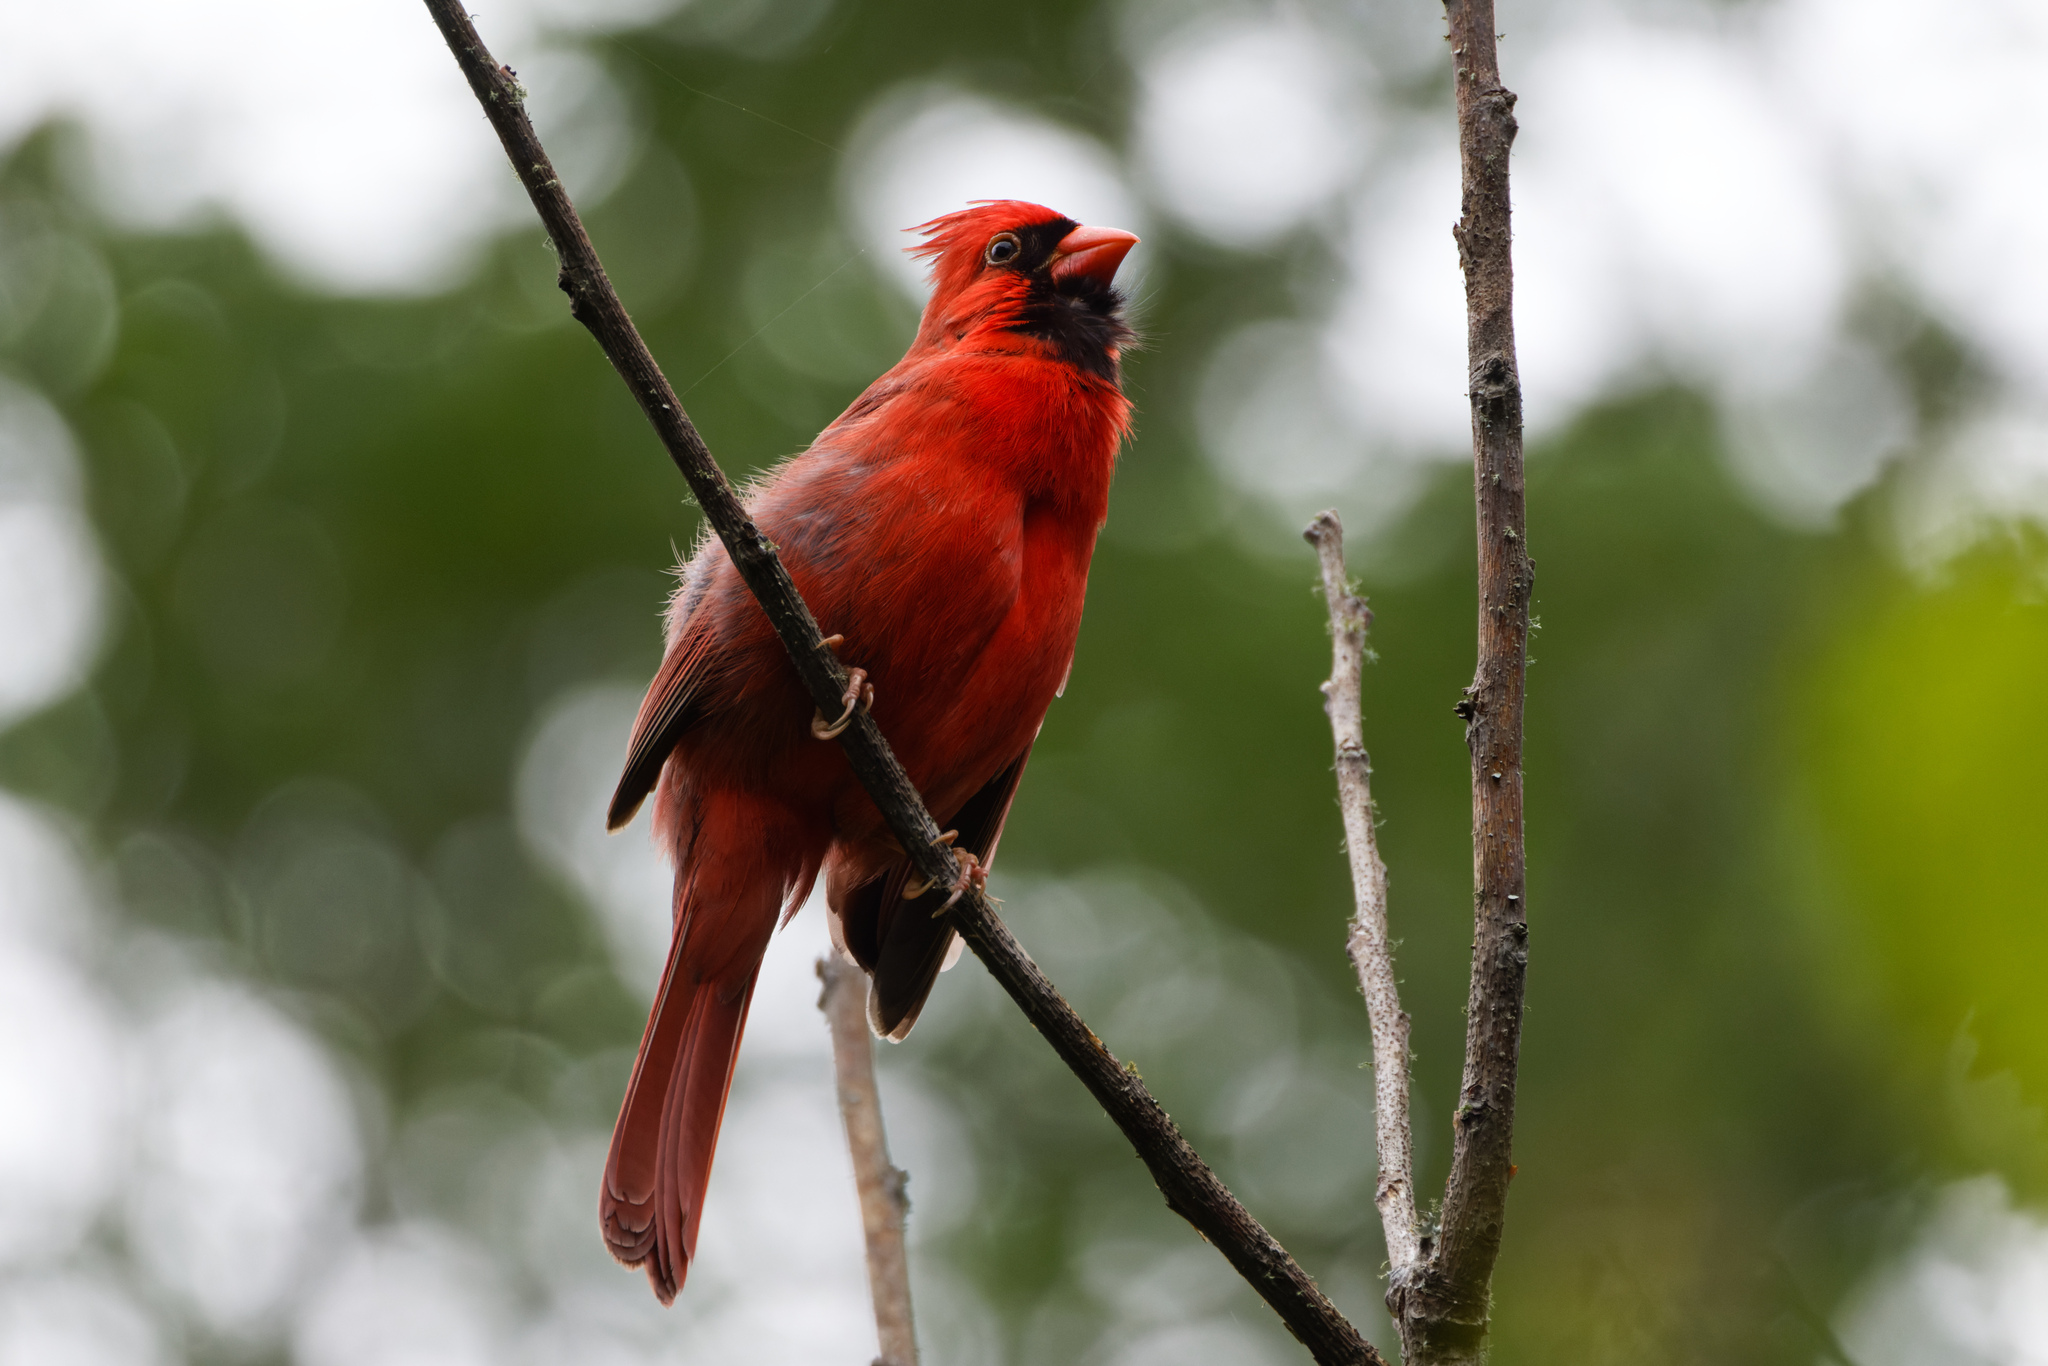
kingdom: Animalia
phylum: Chordata
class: Aves
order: Passeriformes
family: Cardinalidae
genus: Cardinalis
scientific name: Cardinalis cardinalis
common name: Northern cardinal
